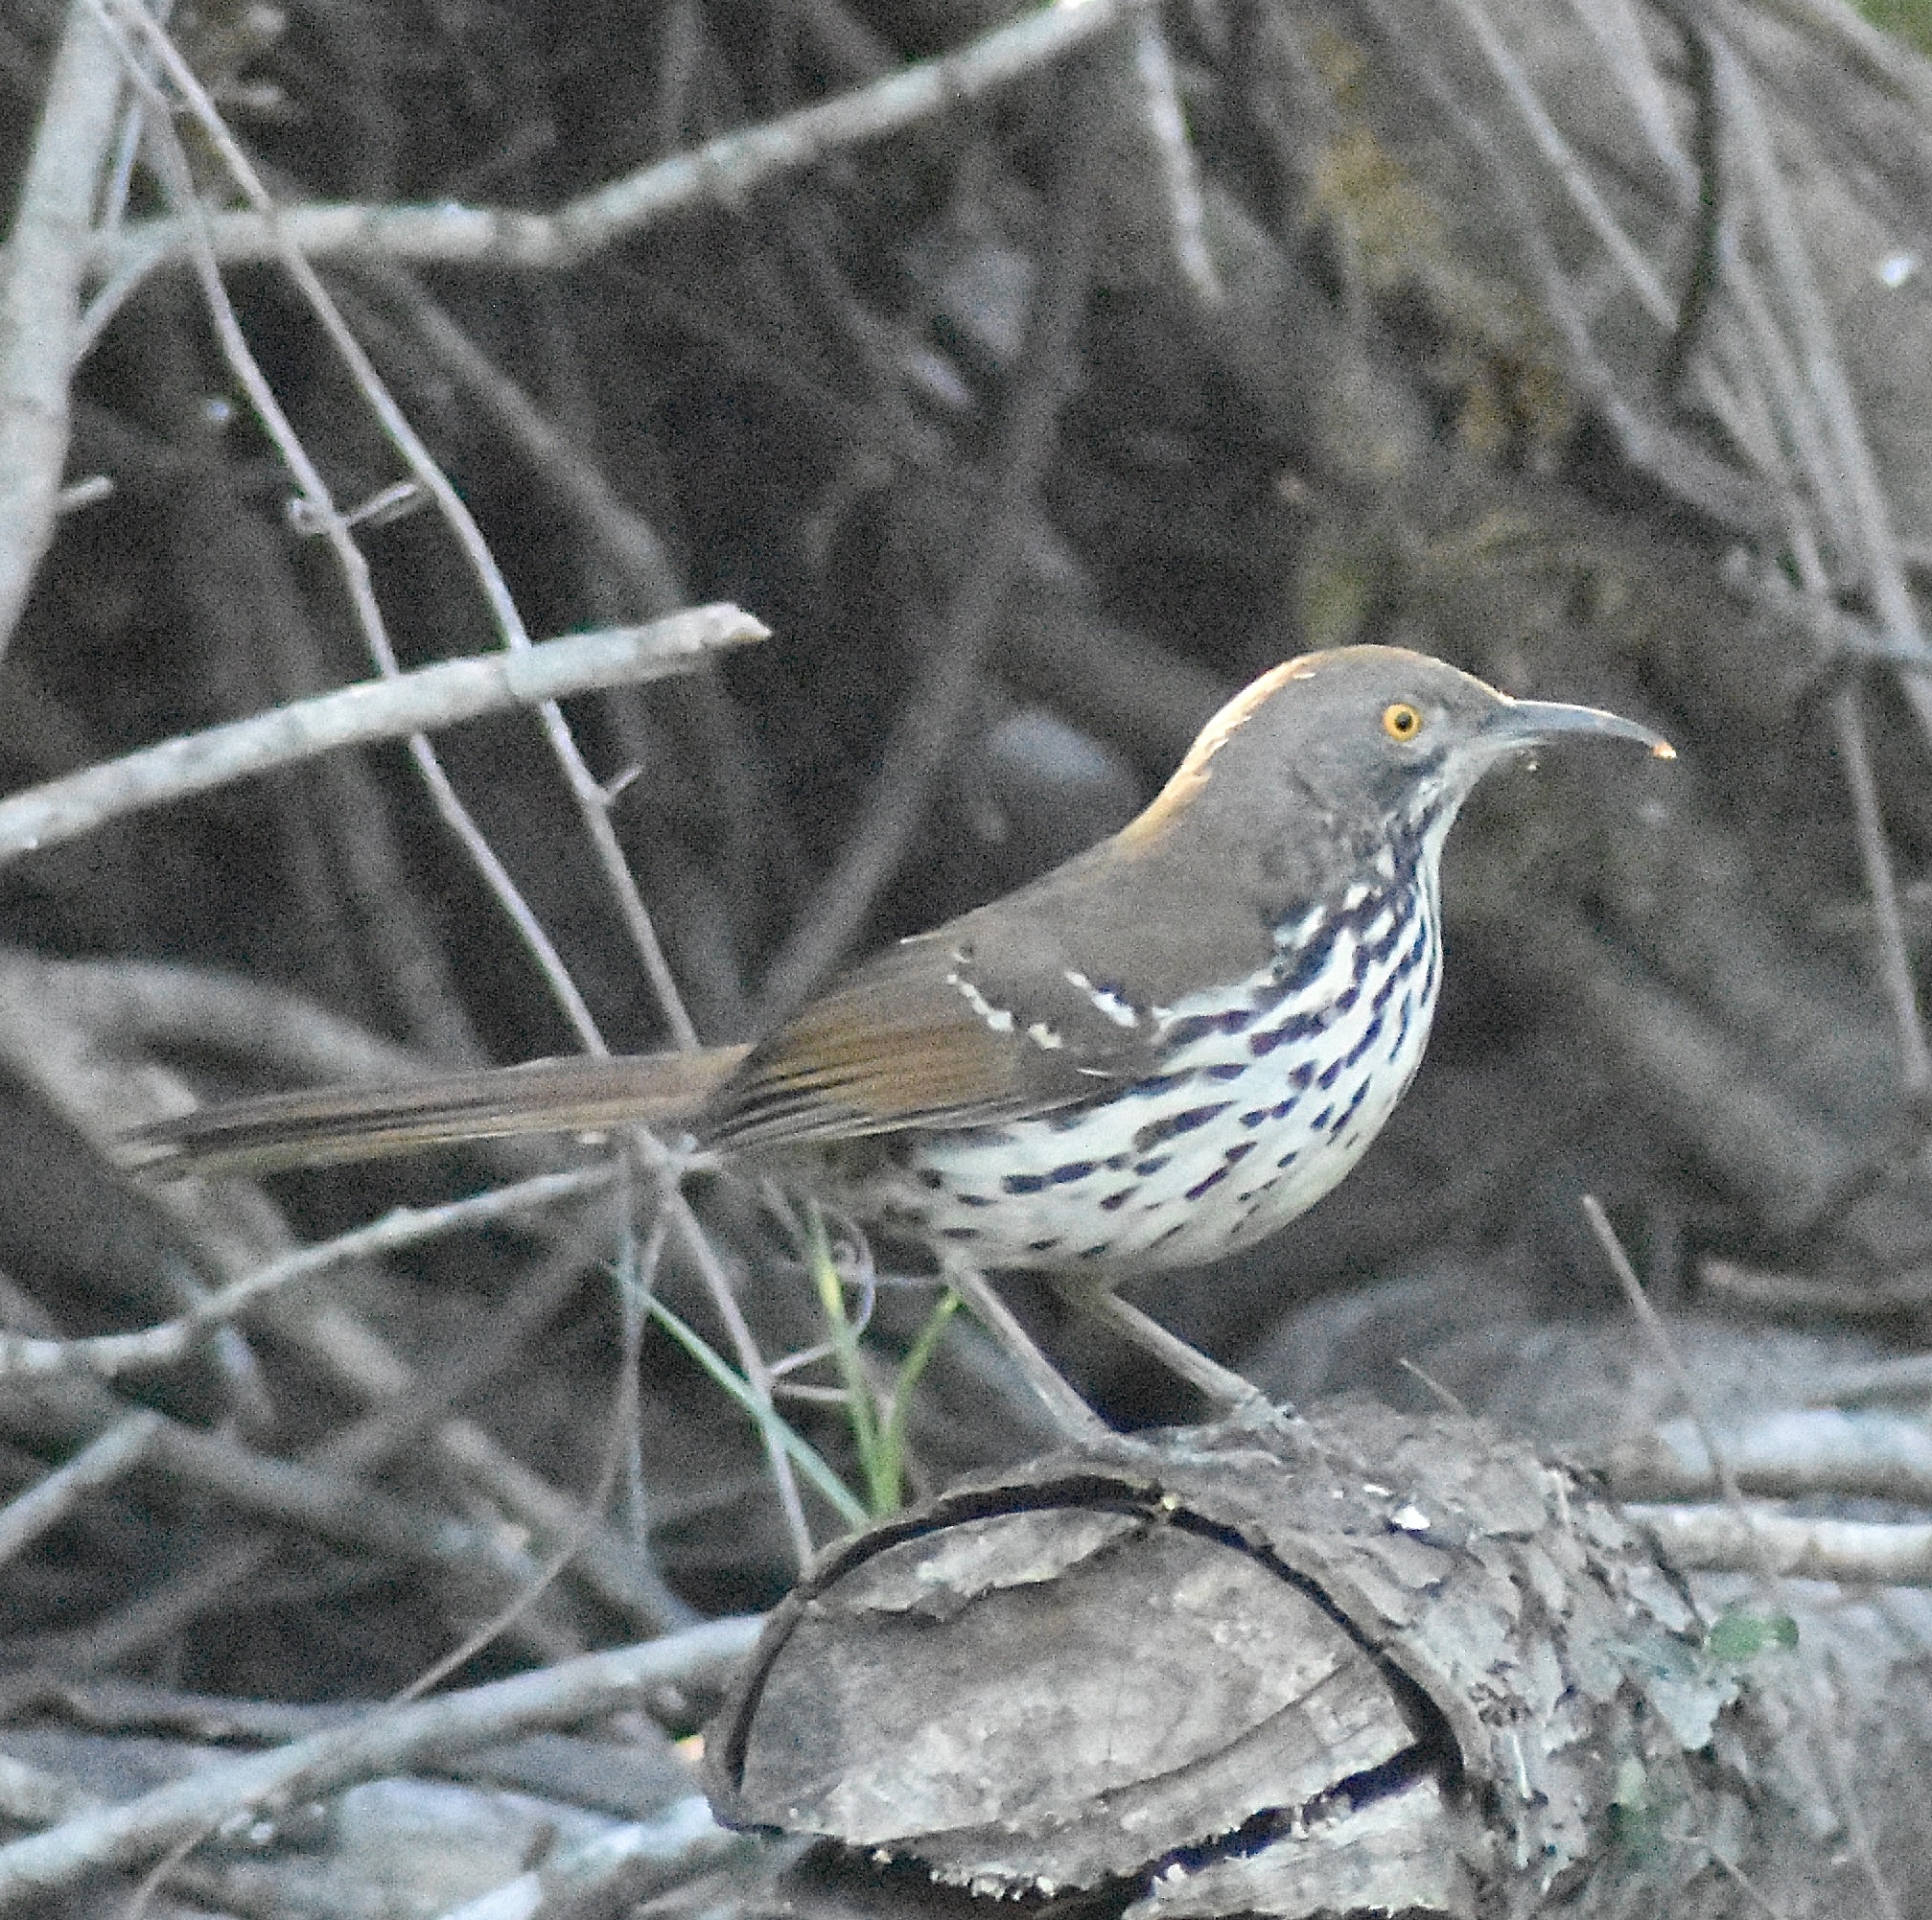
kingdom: Animalia
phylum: Chordata
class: Aves
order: Passeriformes
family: Mimidae
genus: Toxostoma
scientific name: Toxostoma longirostre
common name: Long-billed thrasher
